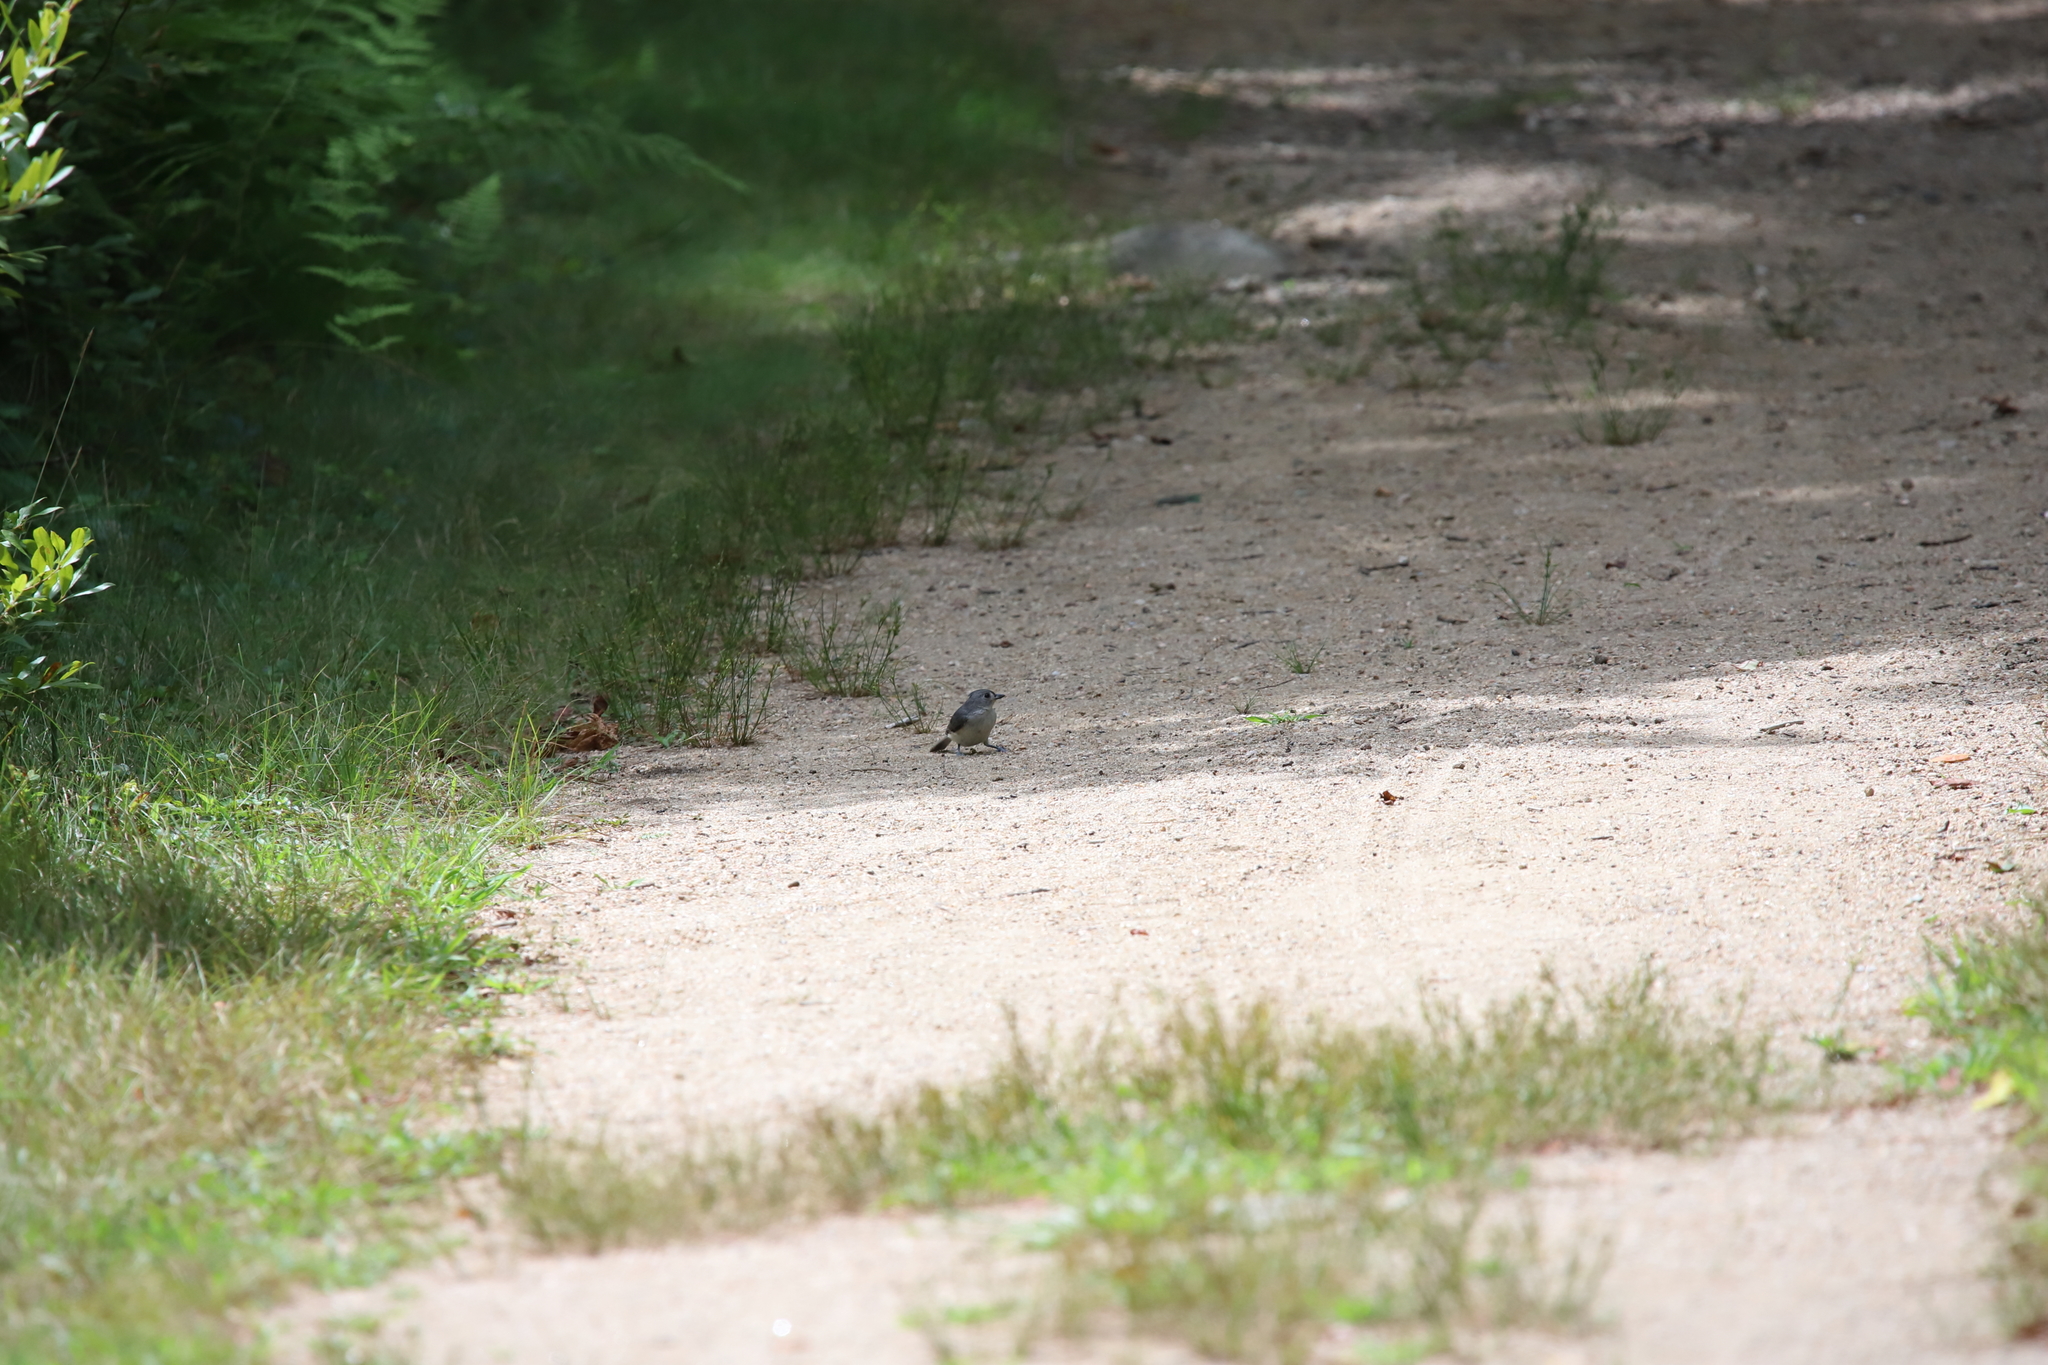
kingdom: Animalia
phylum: Chordata
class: Aves
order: Passeriformes
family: Paridae
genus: Baeolophus
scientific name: Baeolophus bicolor
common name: Tufted titmouse
